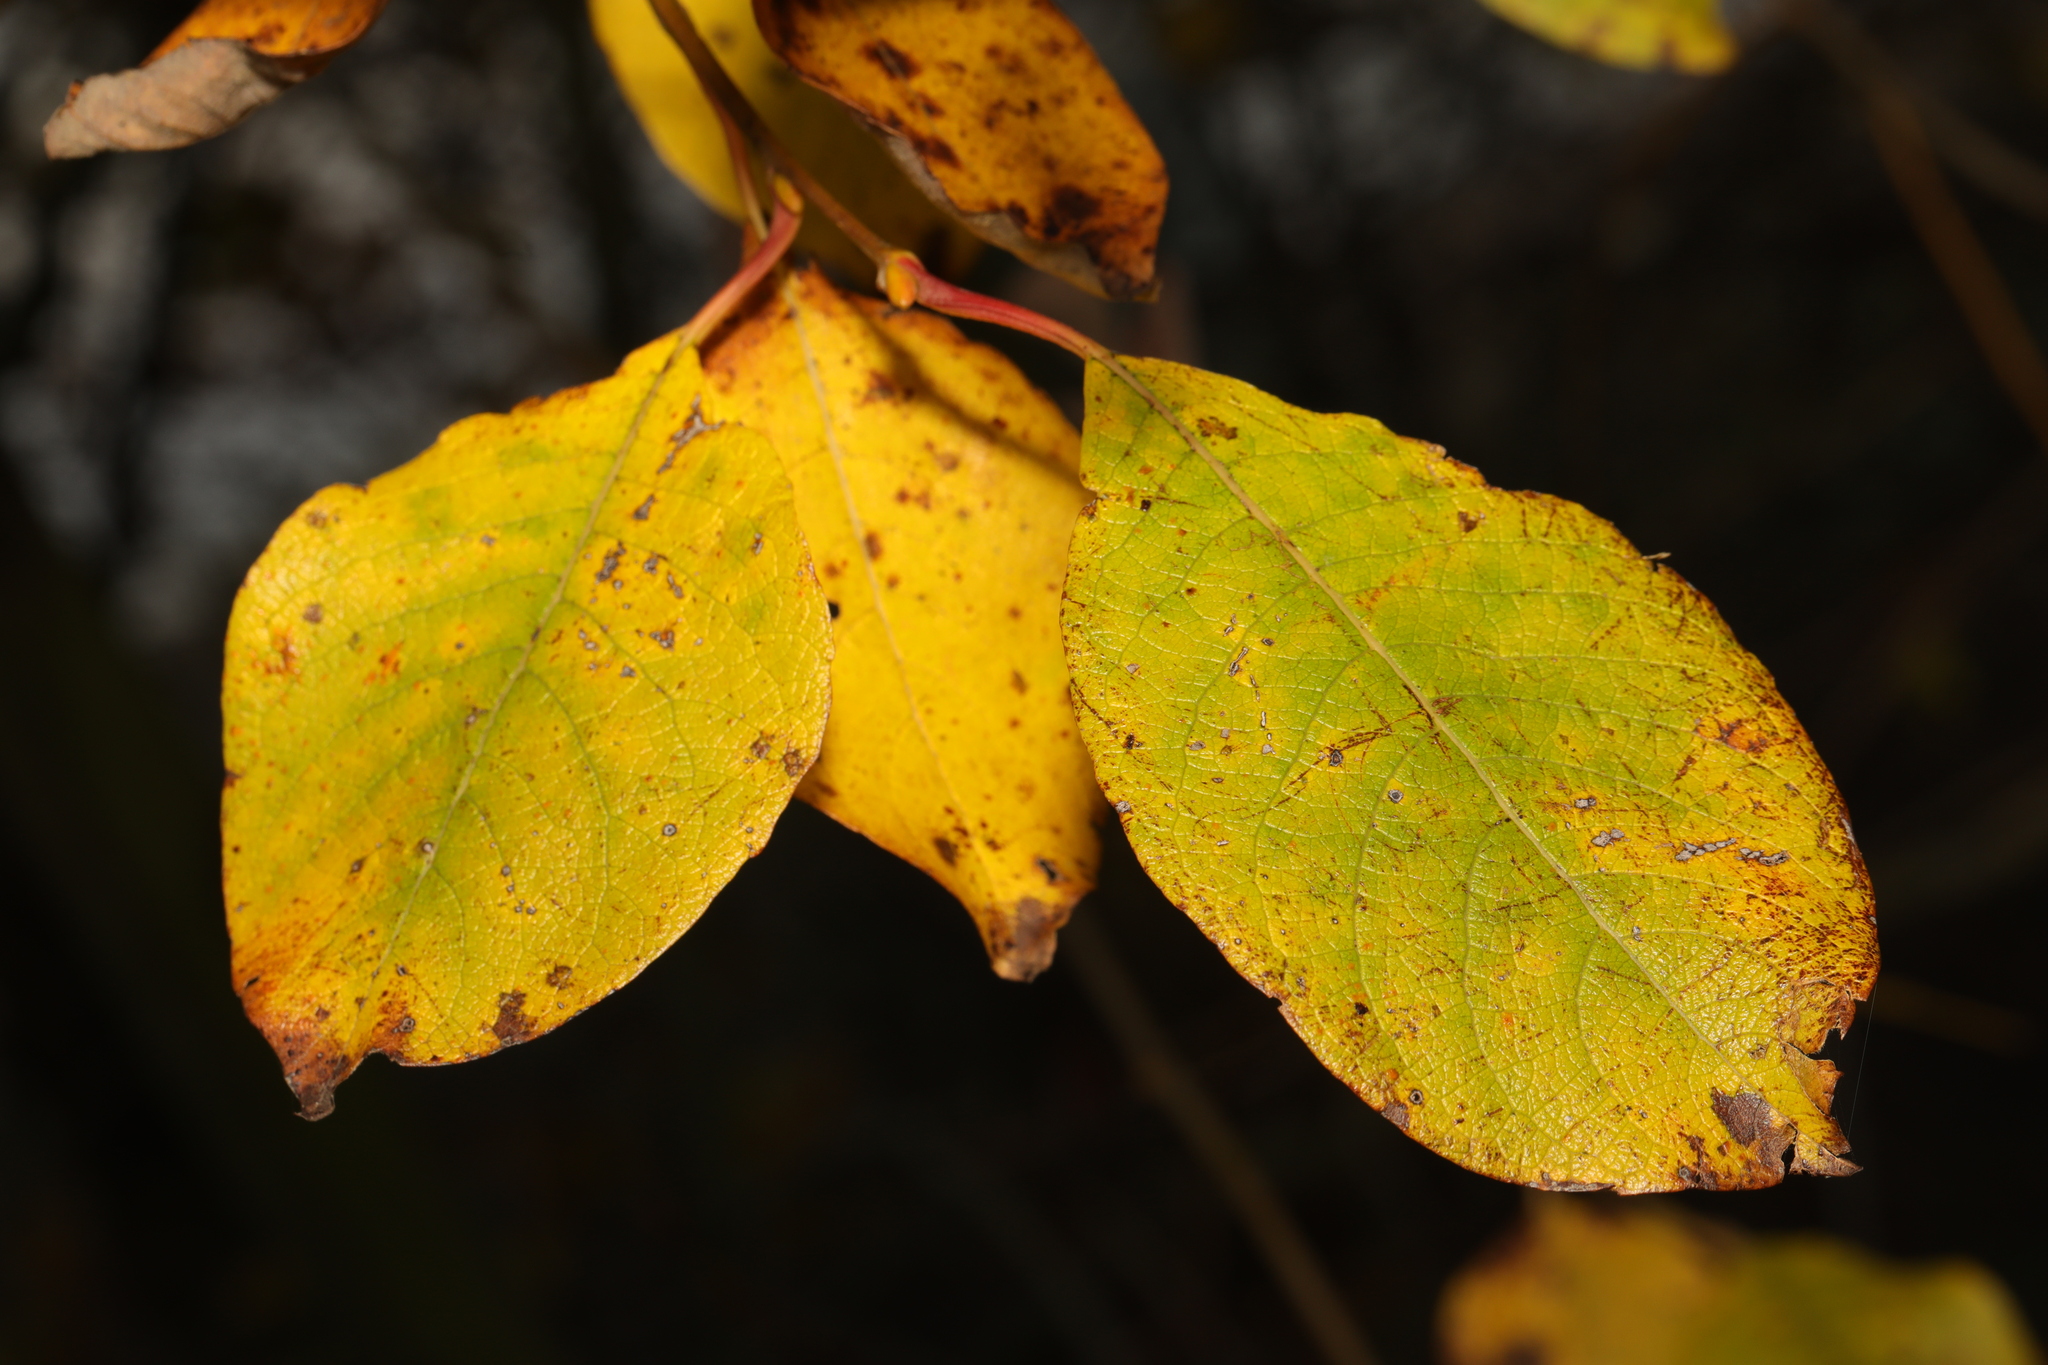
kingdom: Plantae
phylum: Tracheophyta
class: Magnoliopsida
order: Rosales
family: Rosaceae
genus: Prunus
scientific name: Prunus padus
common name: Bird cherry
